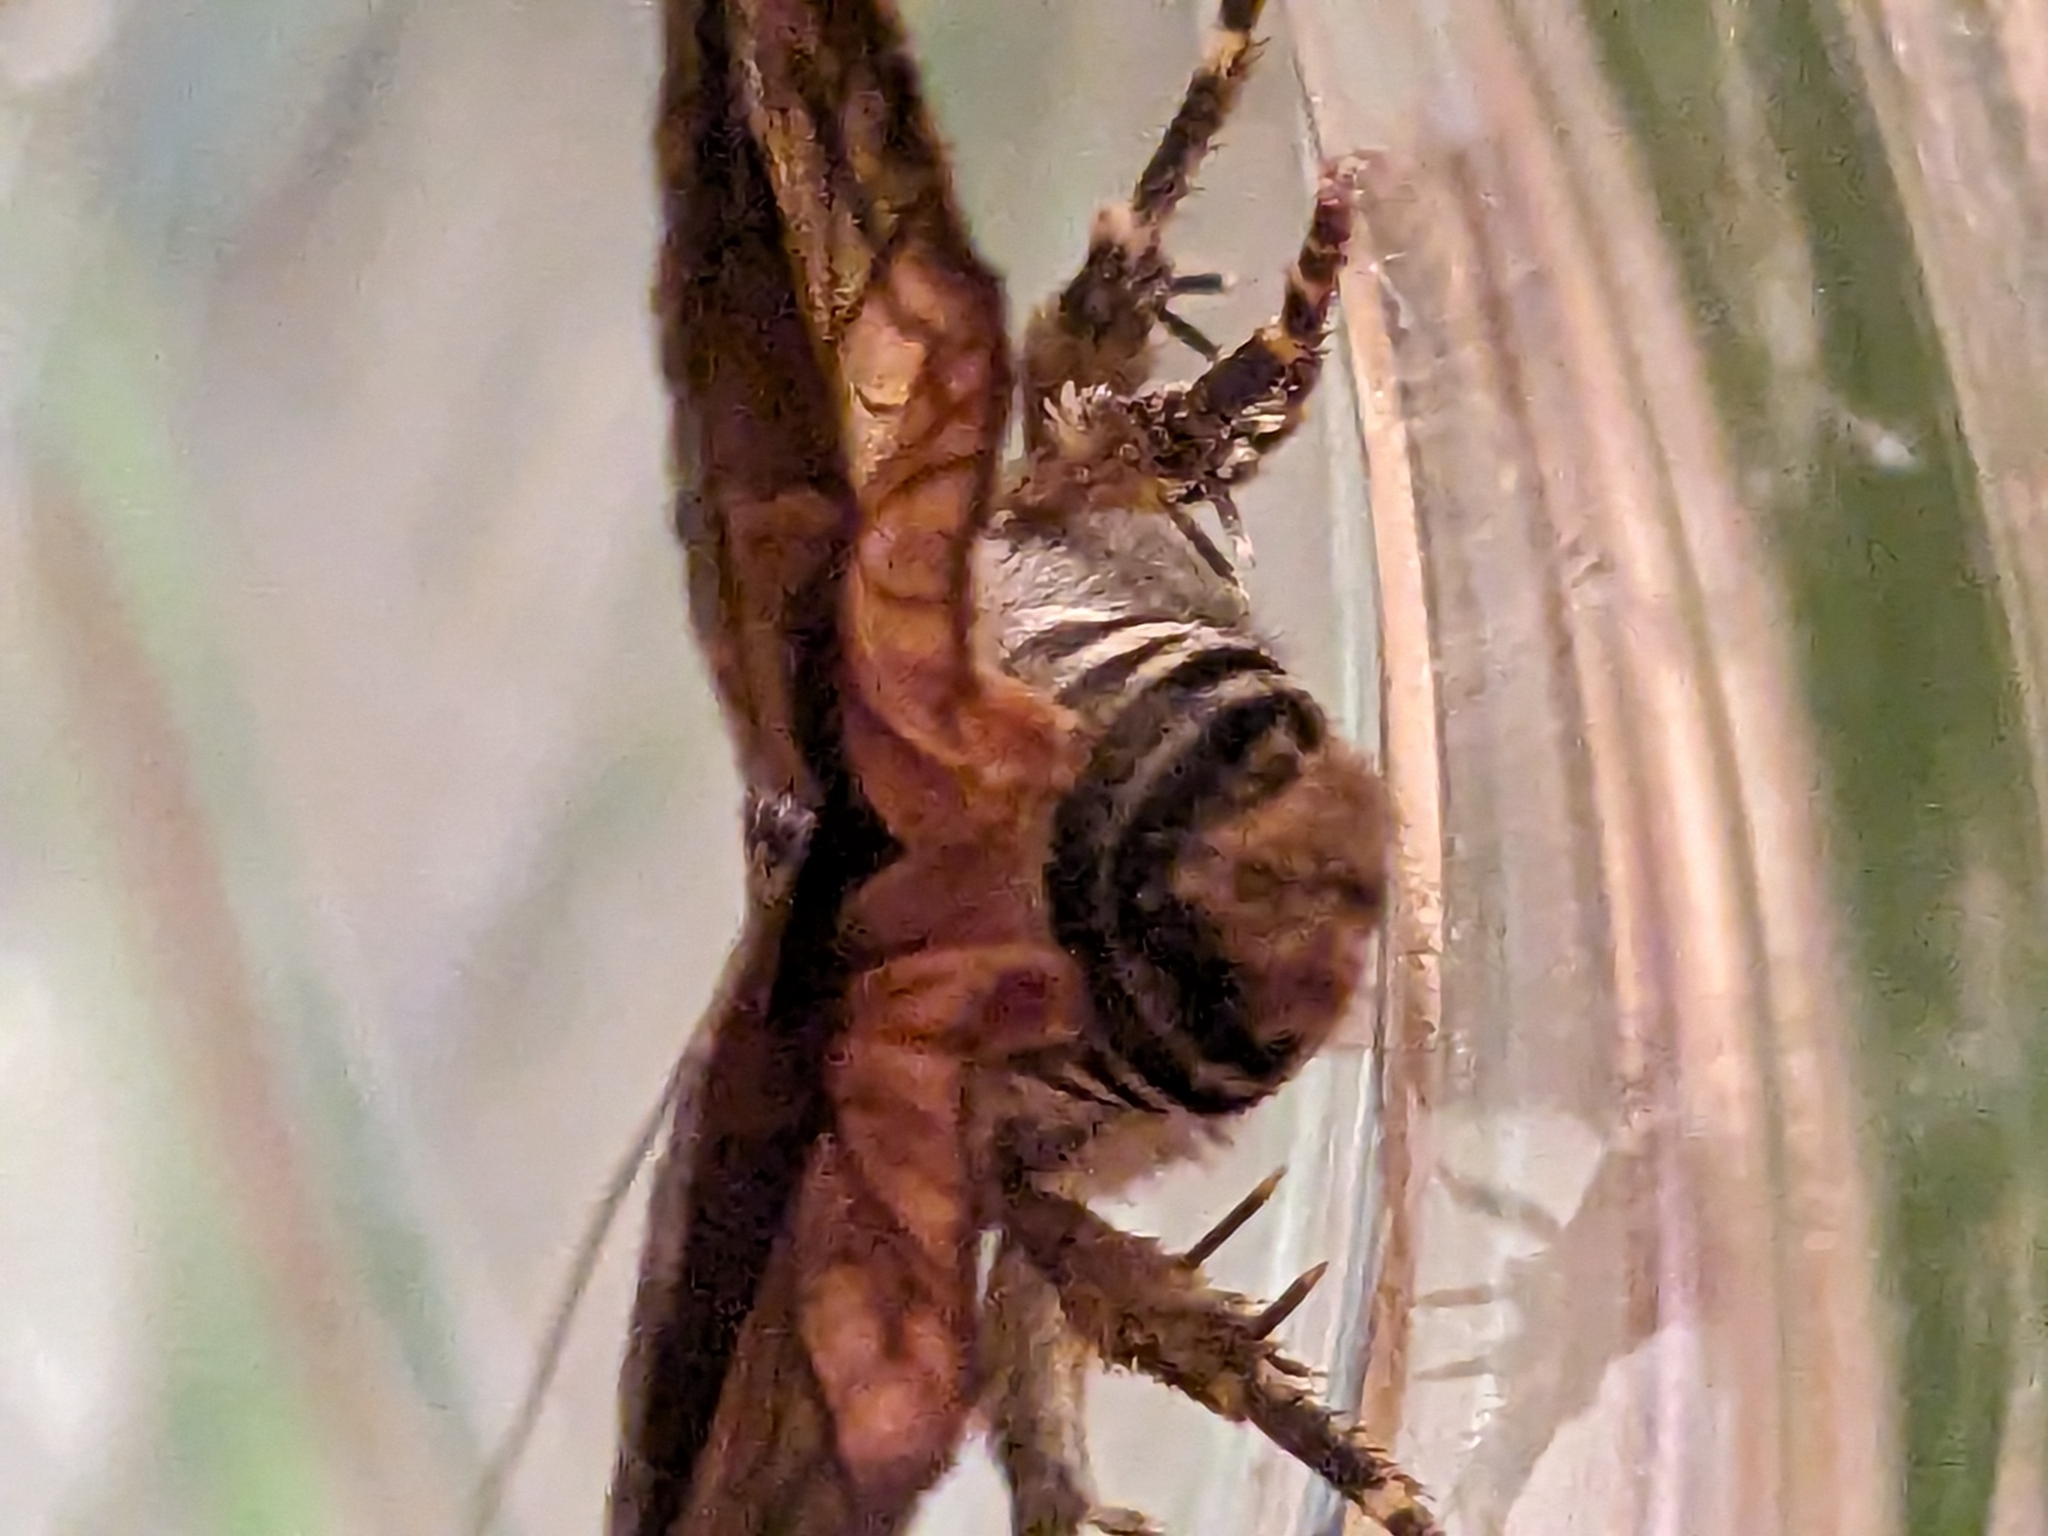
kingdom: Animalia
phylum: Arthropoda
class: Insecta
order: Lepidoptera
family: Noctuidae
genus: Amphipyra
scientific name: Amphipyra pyramidoides
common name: American copper underwing
